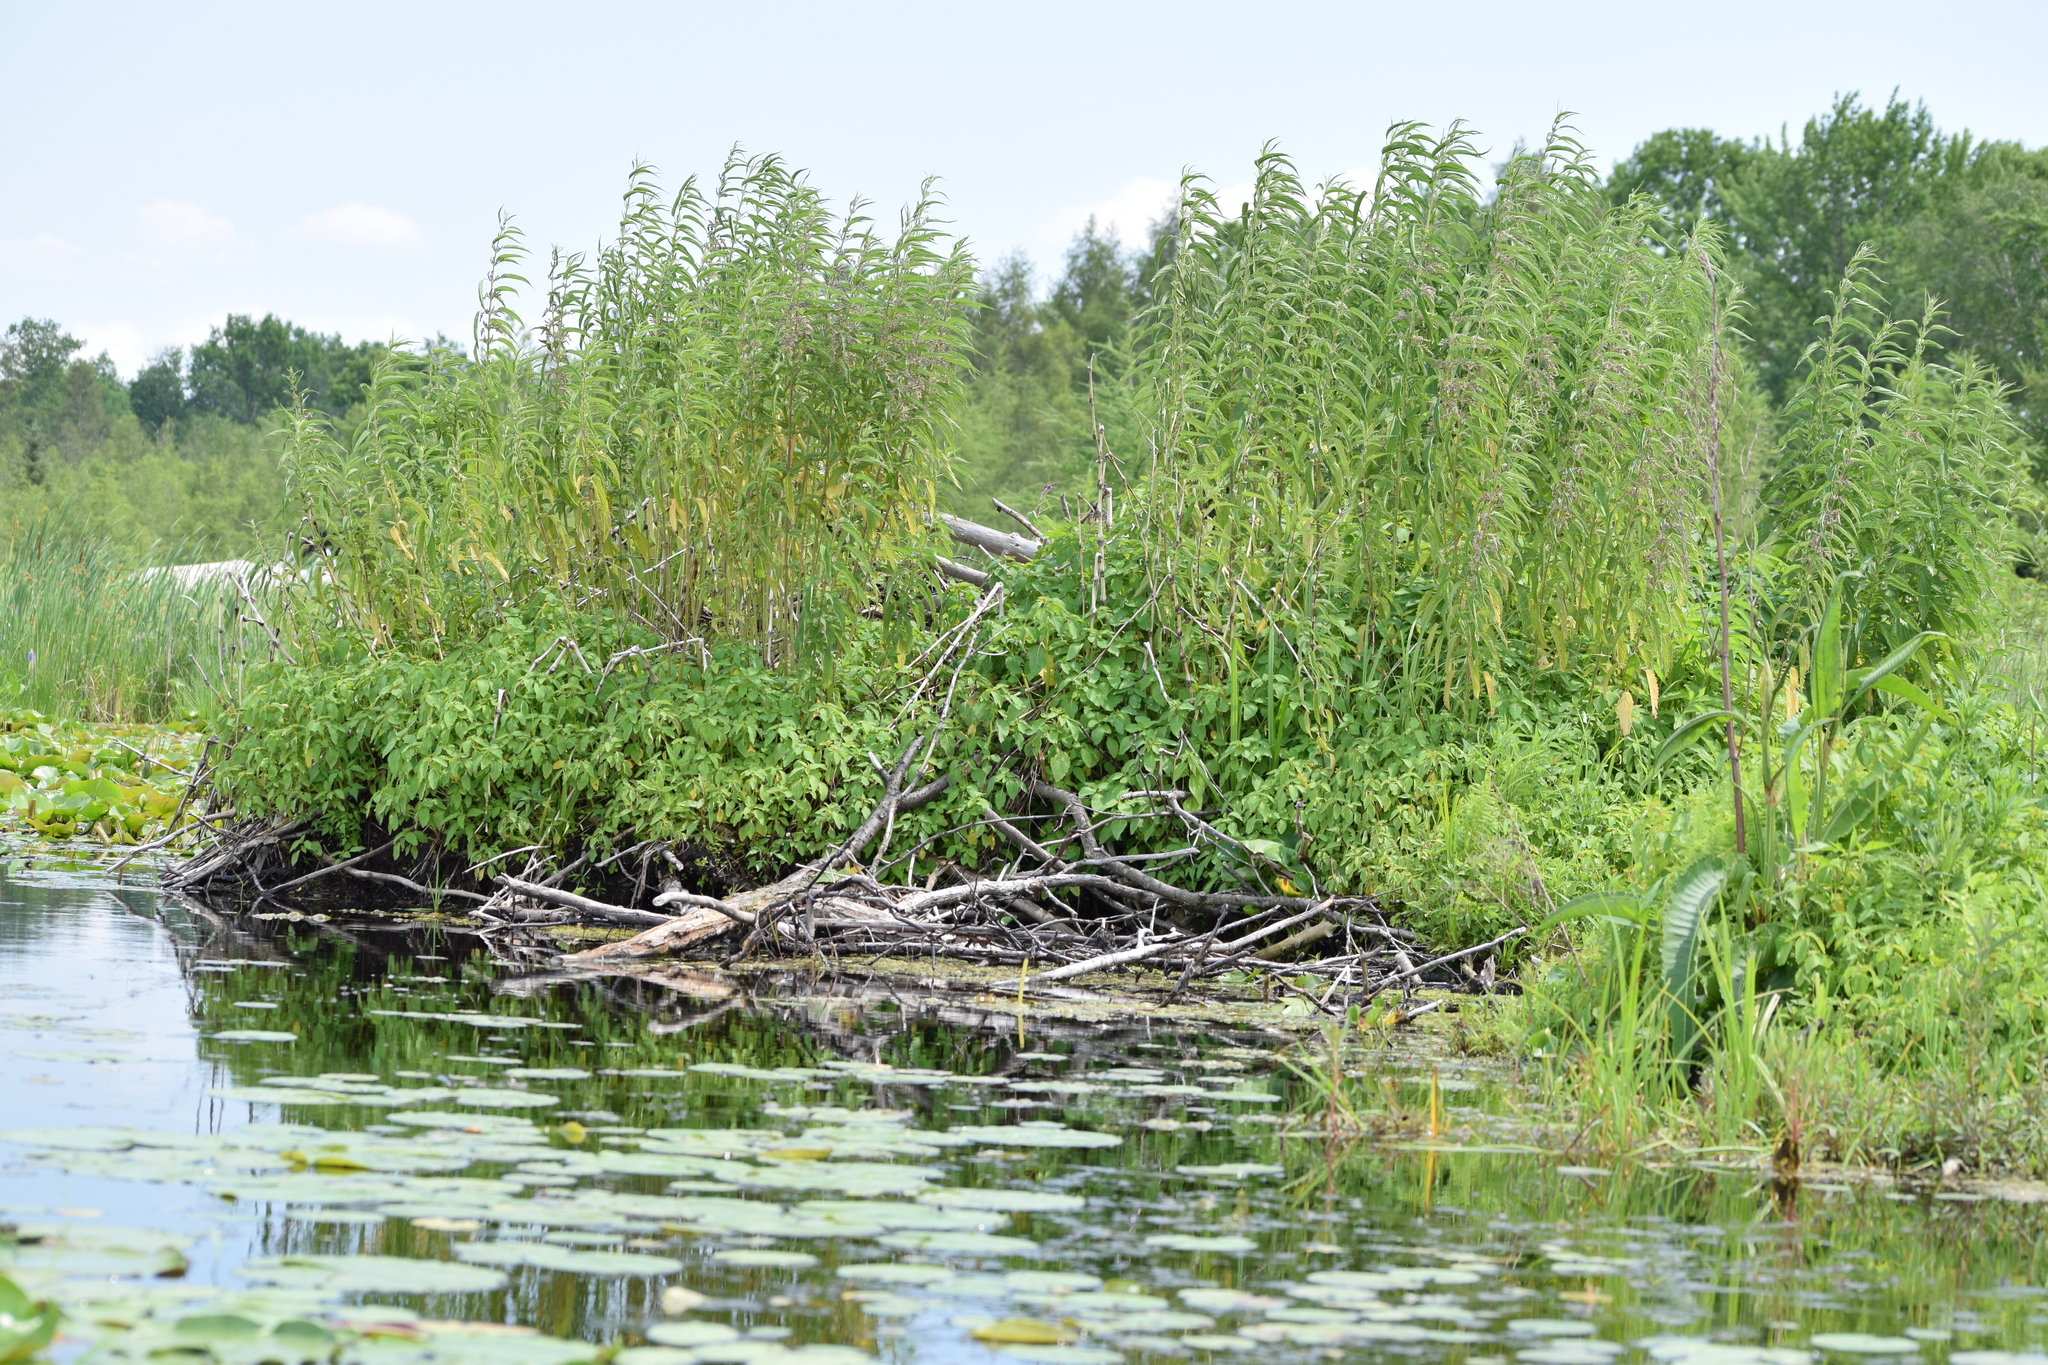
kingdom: Plantae
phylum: Tracheophyta
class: Magnoliopsida
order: Rosales
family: Urticaceae
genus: Urtica
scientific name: Urtica dioica
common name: Common nettle
